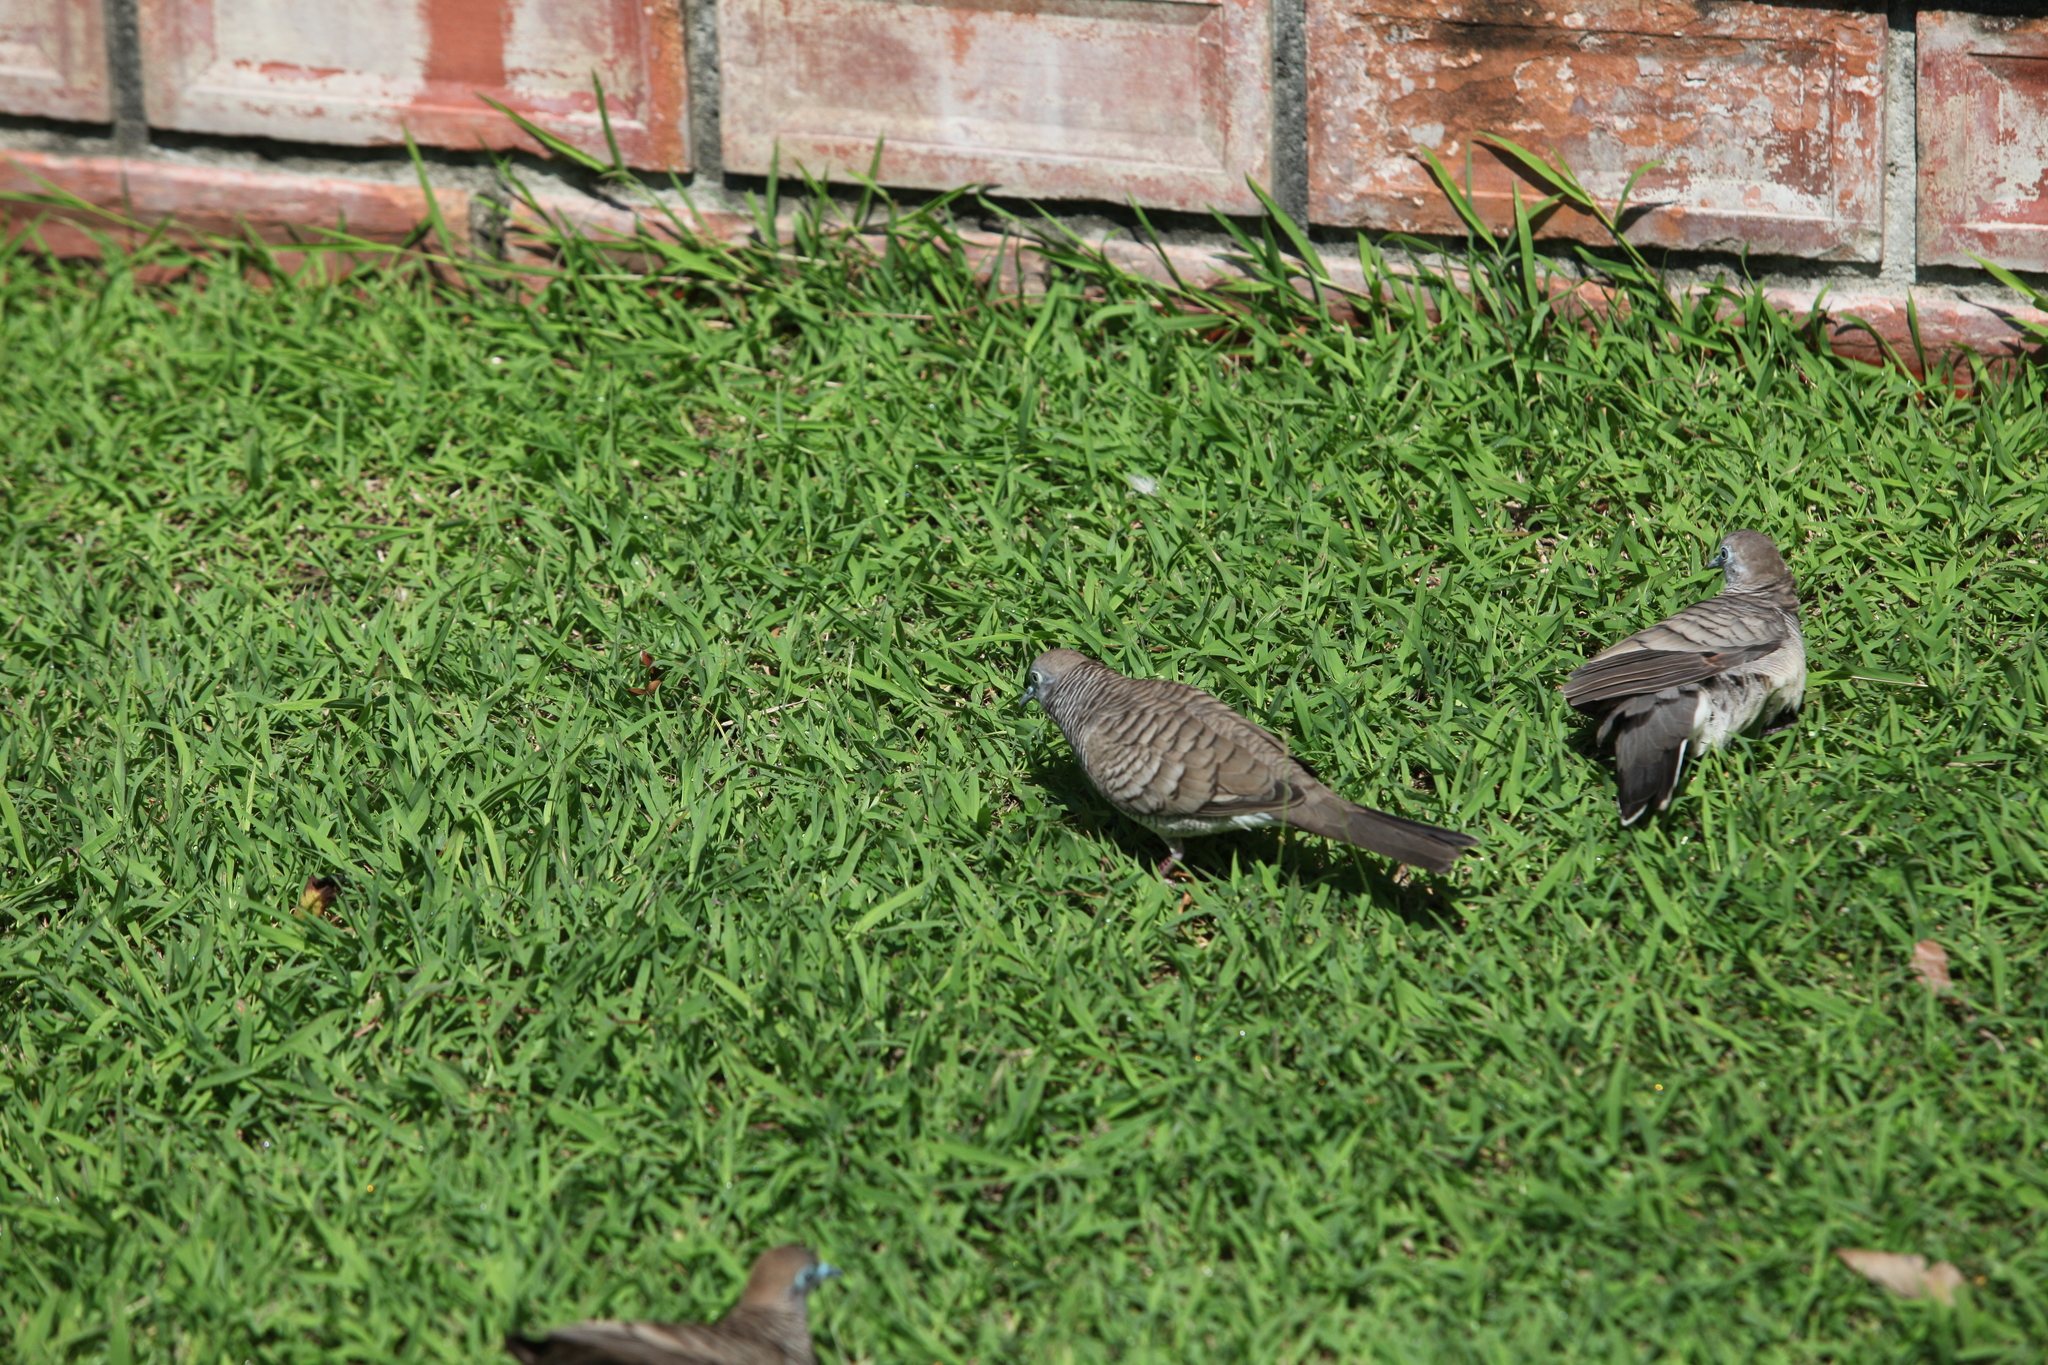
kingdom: Animalia
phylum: Chordata
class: Aves
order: Columbiformes
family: Columbidae
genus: Geopelia
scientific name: Geopelia striata
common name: Zebra dove
